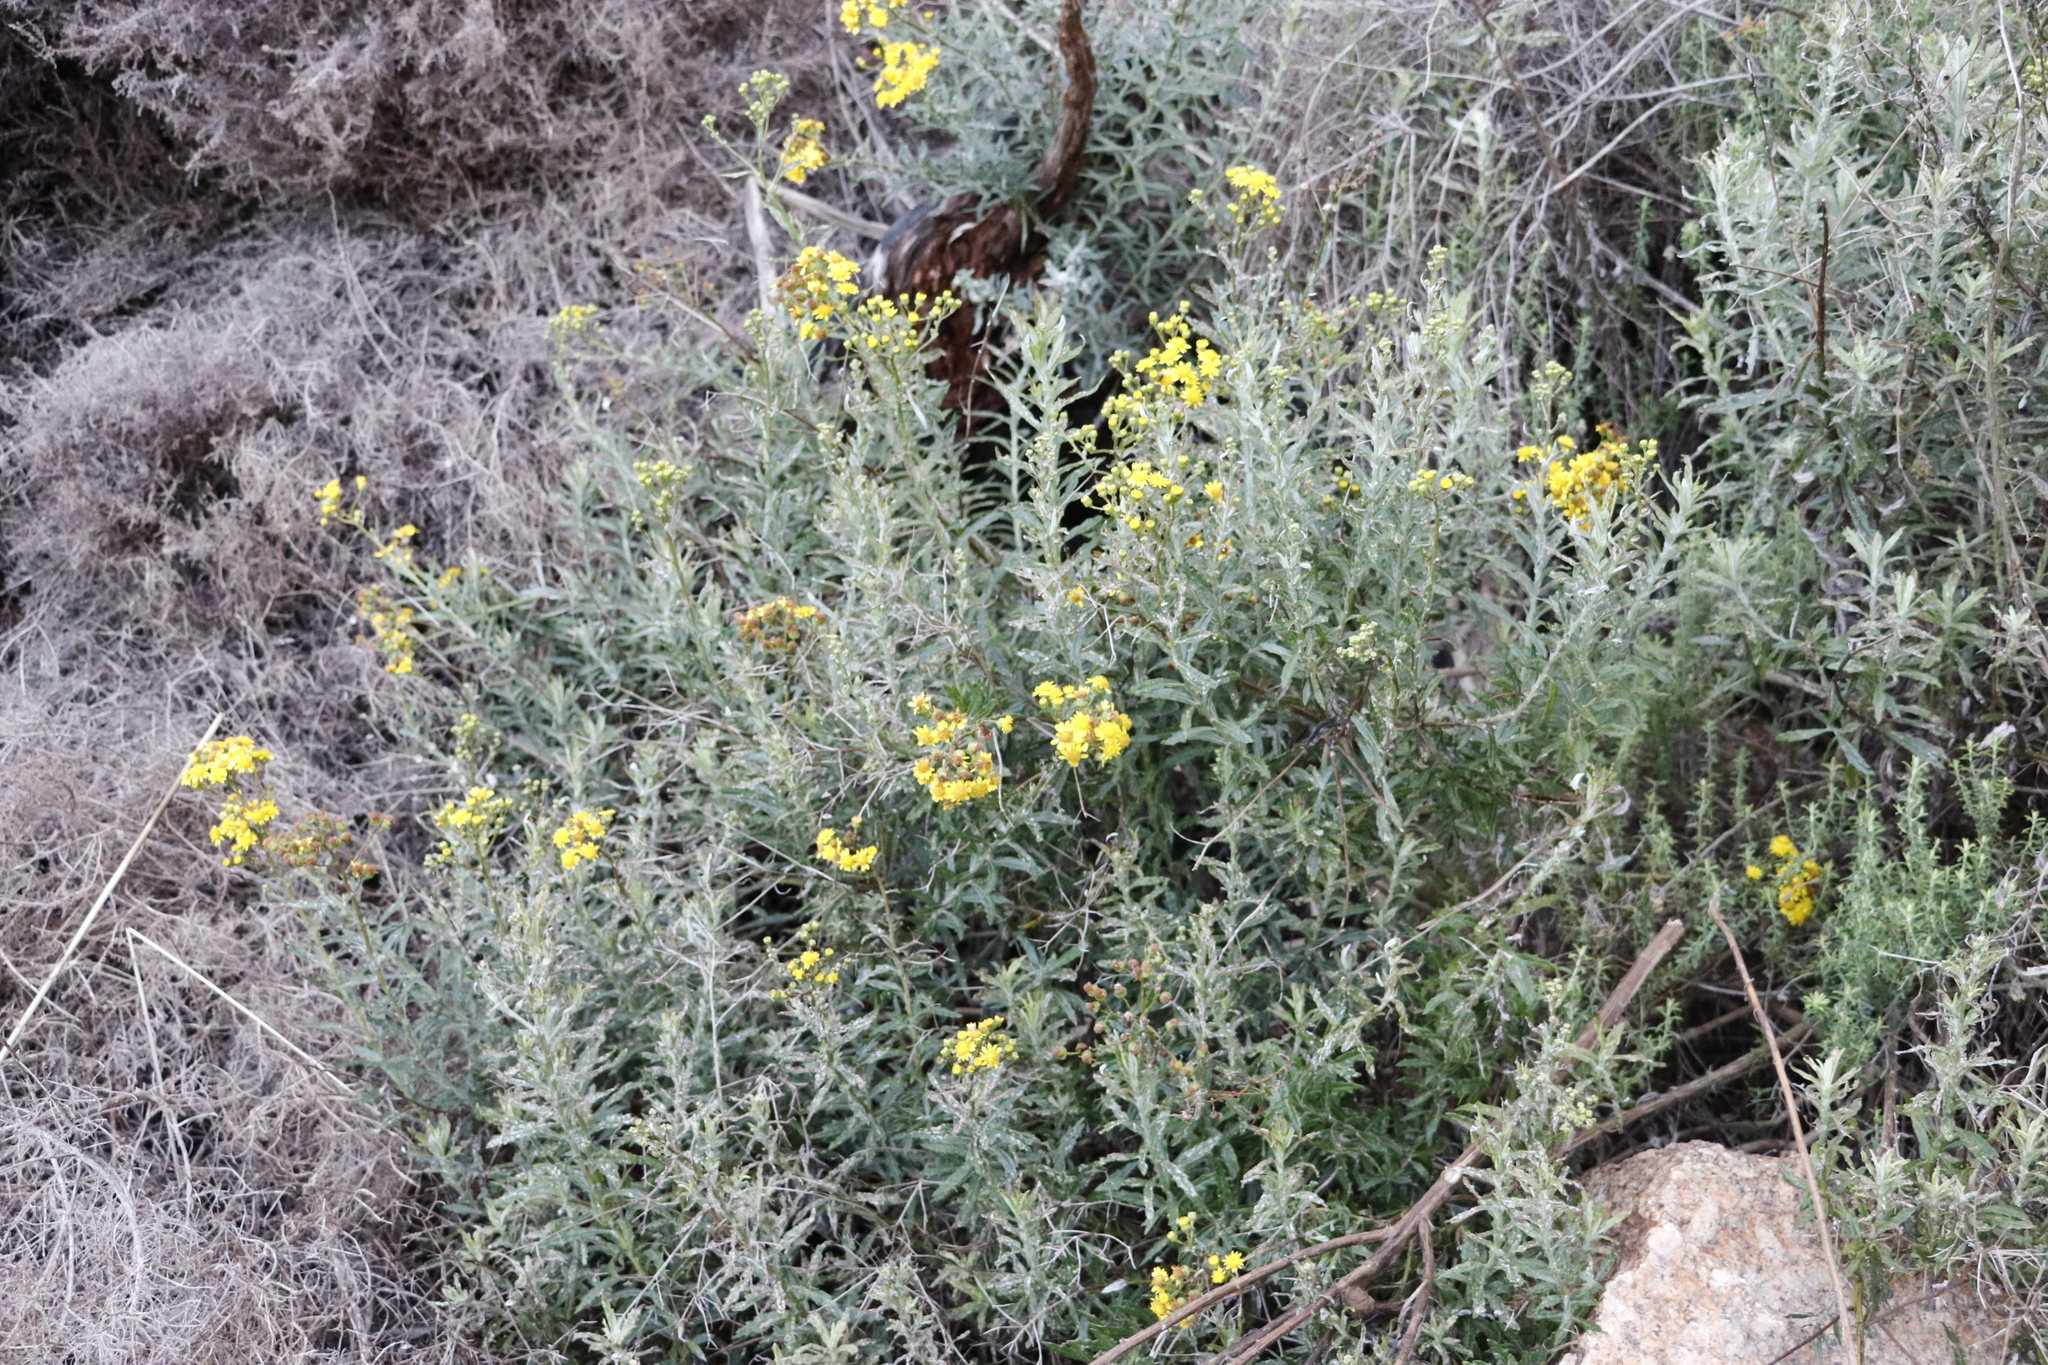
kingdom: Plantae
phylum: Tracheophyta
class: Magnoliopsida
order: Asterales
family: Asteraceae
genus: Senecio
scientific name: Senecio pterophorus
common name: Shoddy ragwort
